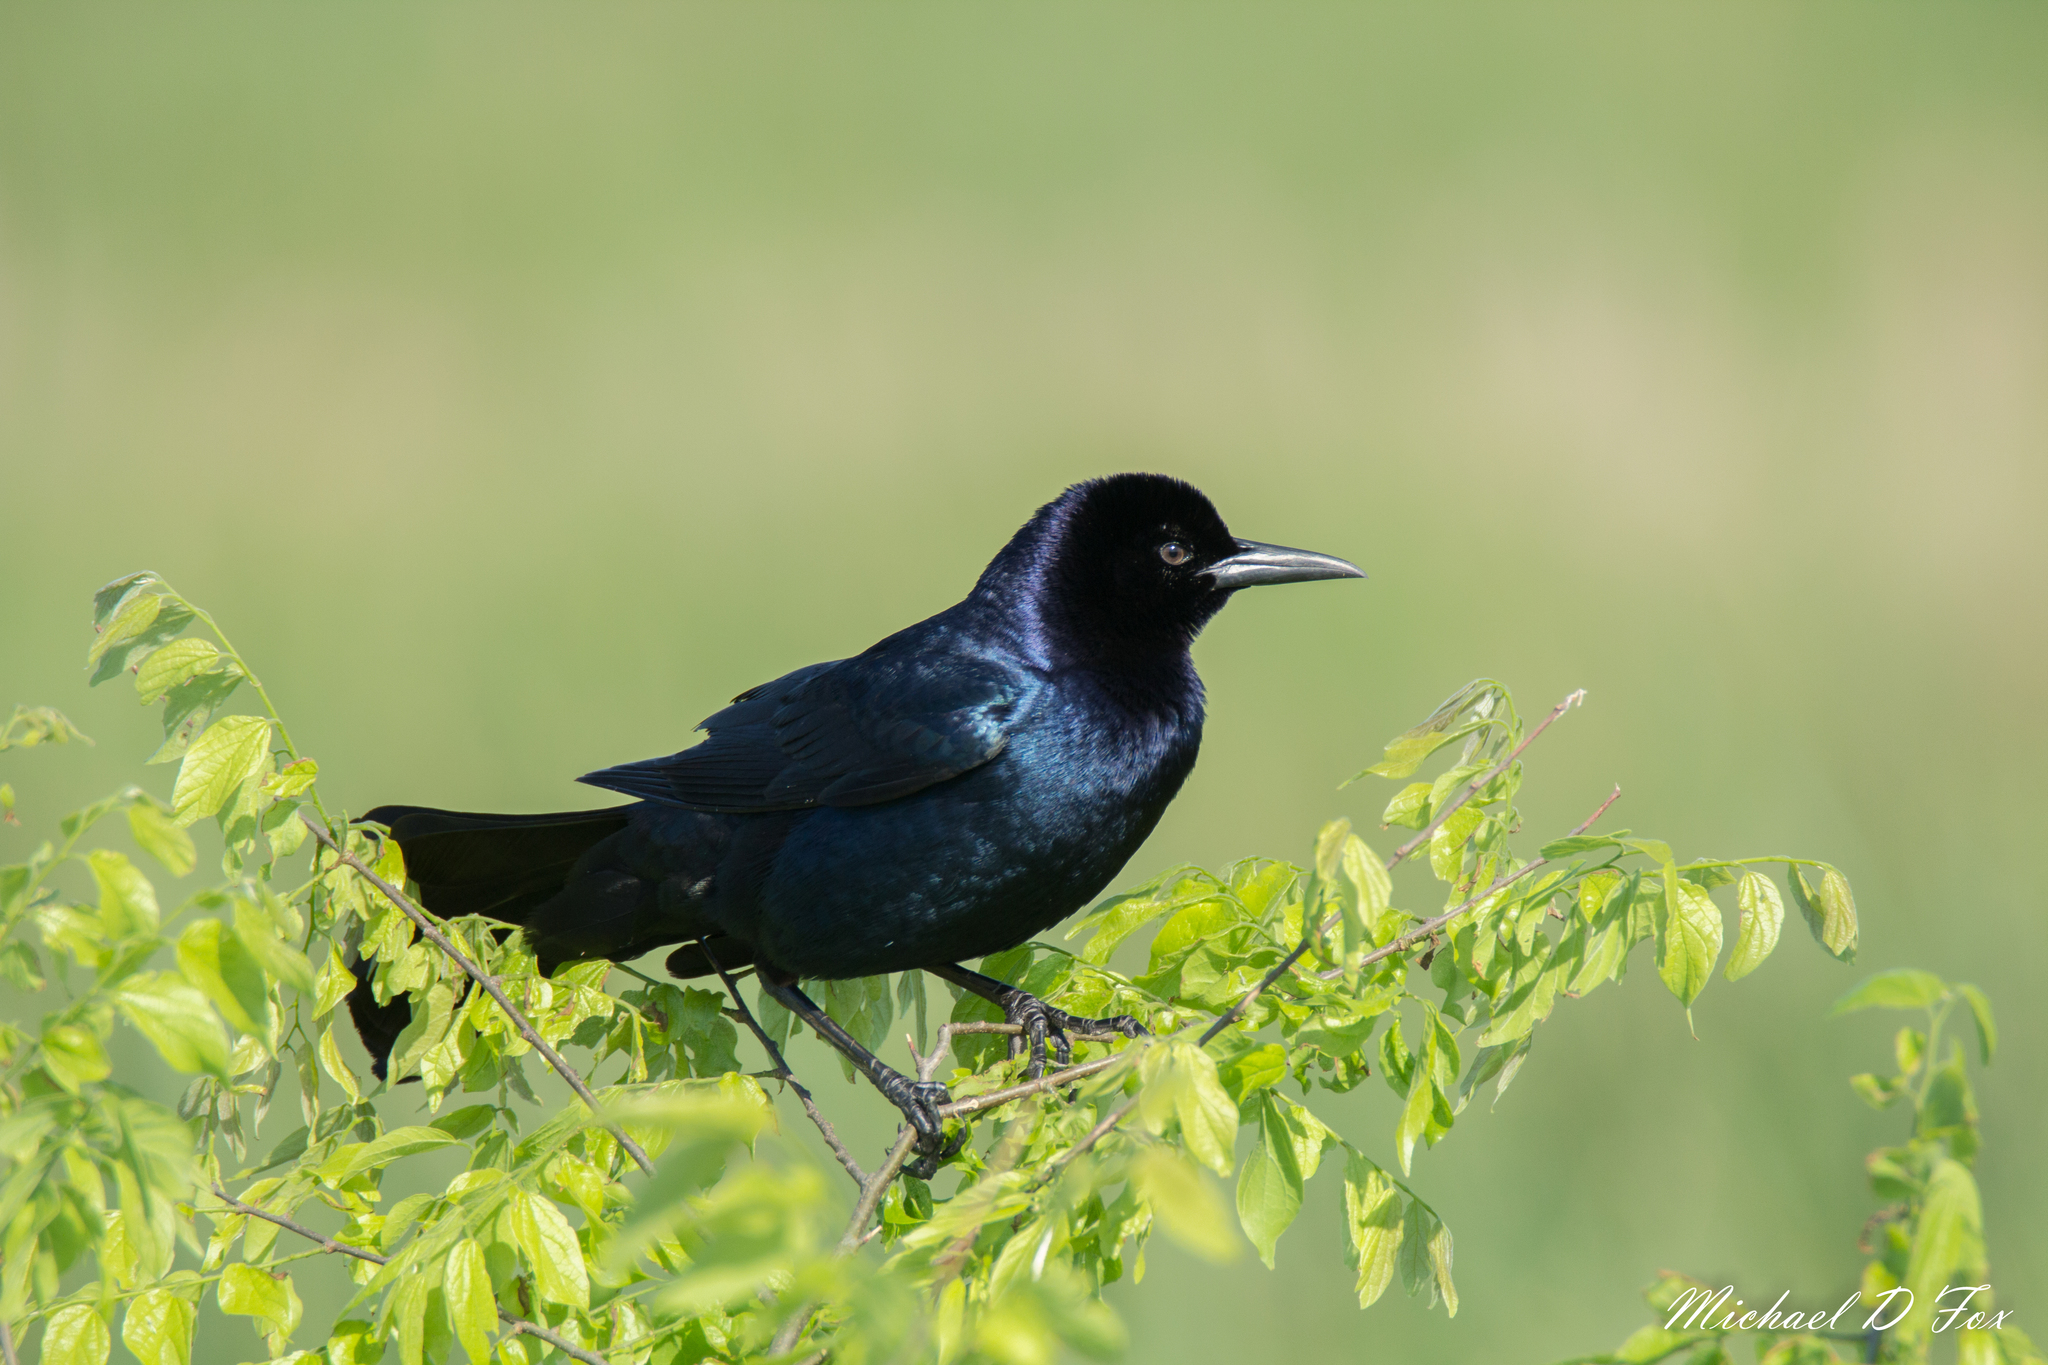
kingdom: Animalia
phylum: Chordata
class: Aves
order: Passeriformes
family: Icteridae
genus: Quiscalus
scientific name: Quiscalus major
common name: Boat-tailed grackle
